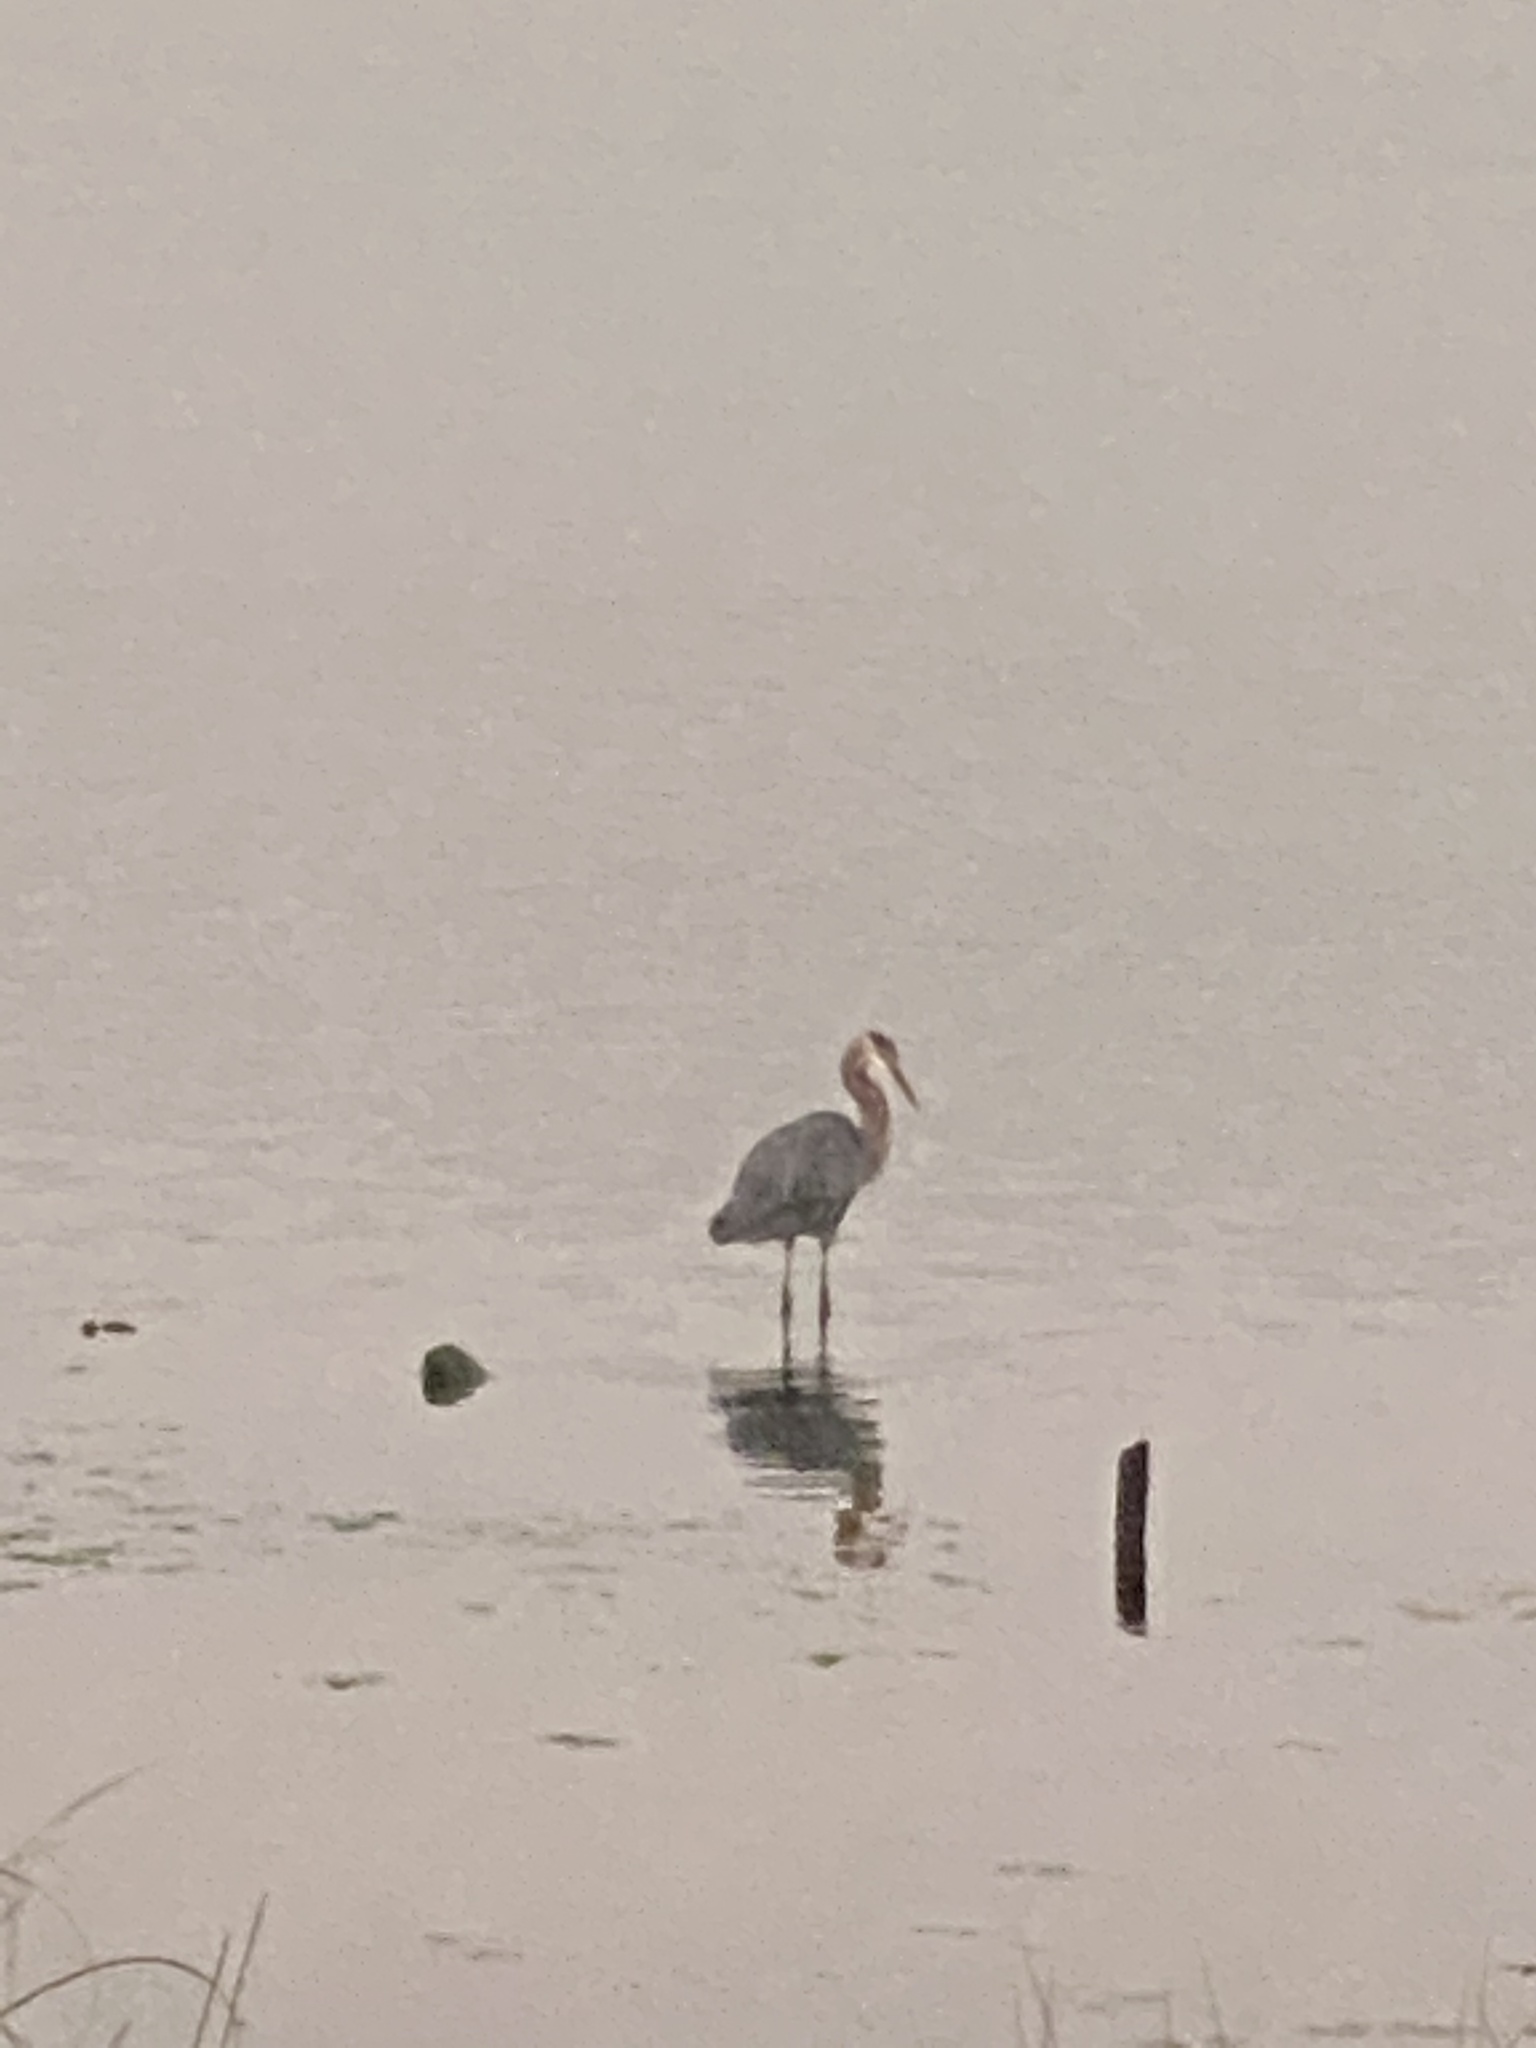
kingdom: Animalia
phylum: Chordata
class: Aves
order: Pelecaniformes
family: Ardeidae
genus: Ardea
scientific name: Ardea herodias
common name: Great blue heron
